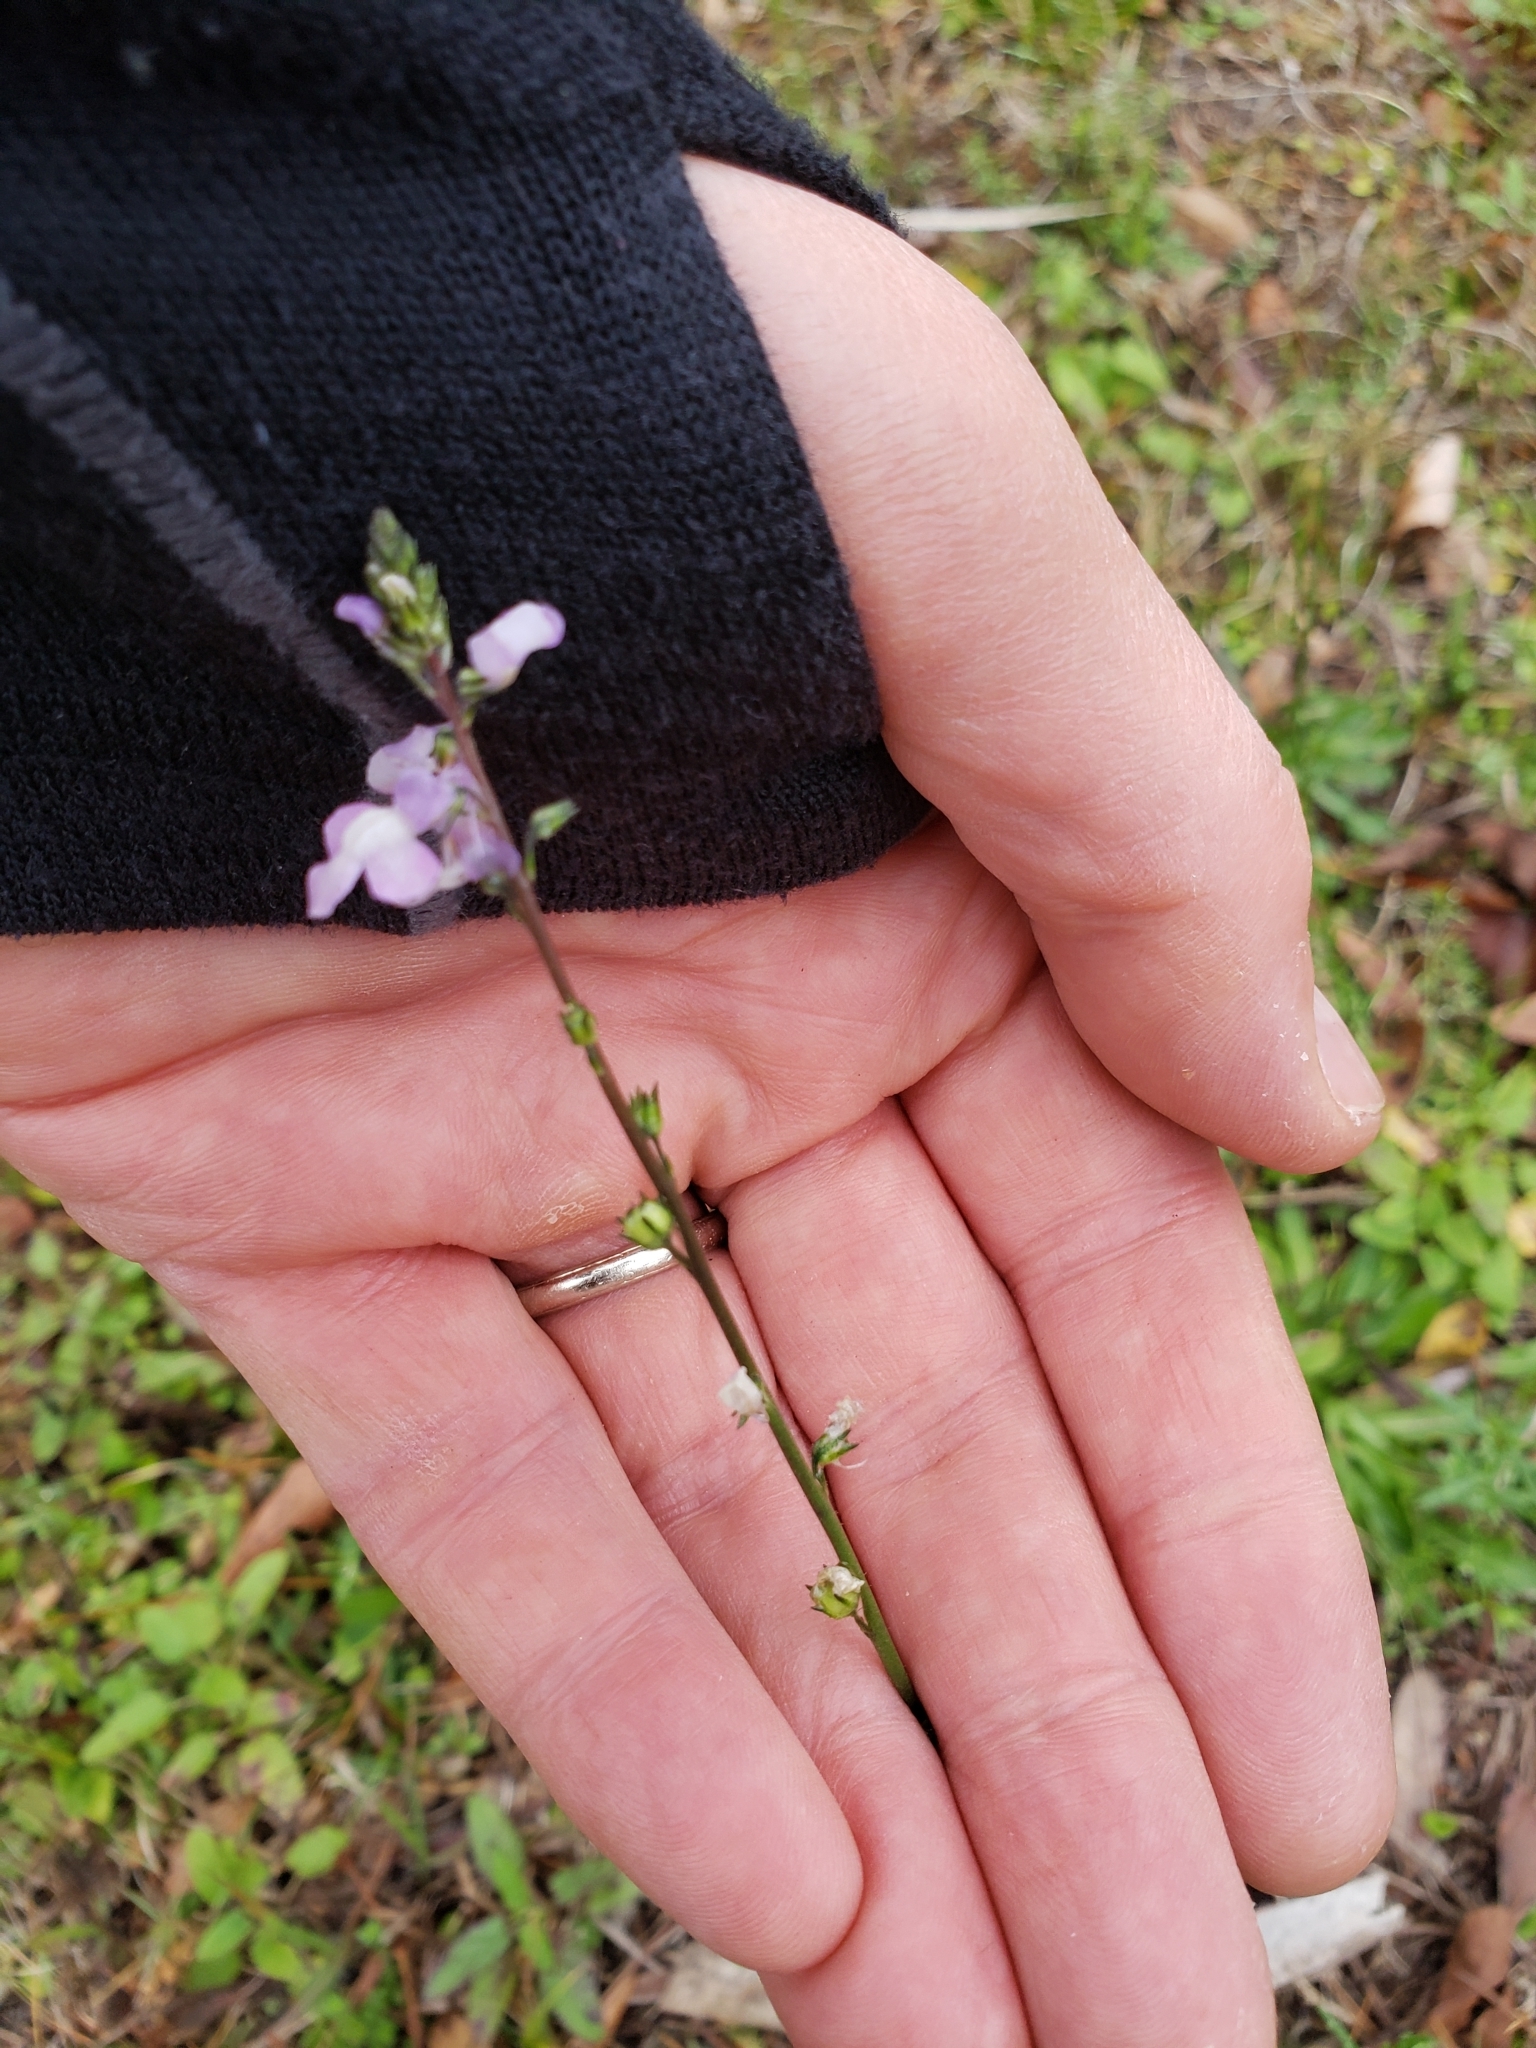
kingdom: Plantae
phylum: Tracheophyta
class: Magnoliopsida
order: Lamiales
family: Plantaginaceae
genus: Nuttallanthus
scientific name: Nuttallanthus canadensis
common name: Blue toadflax
